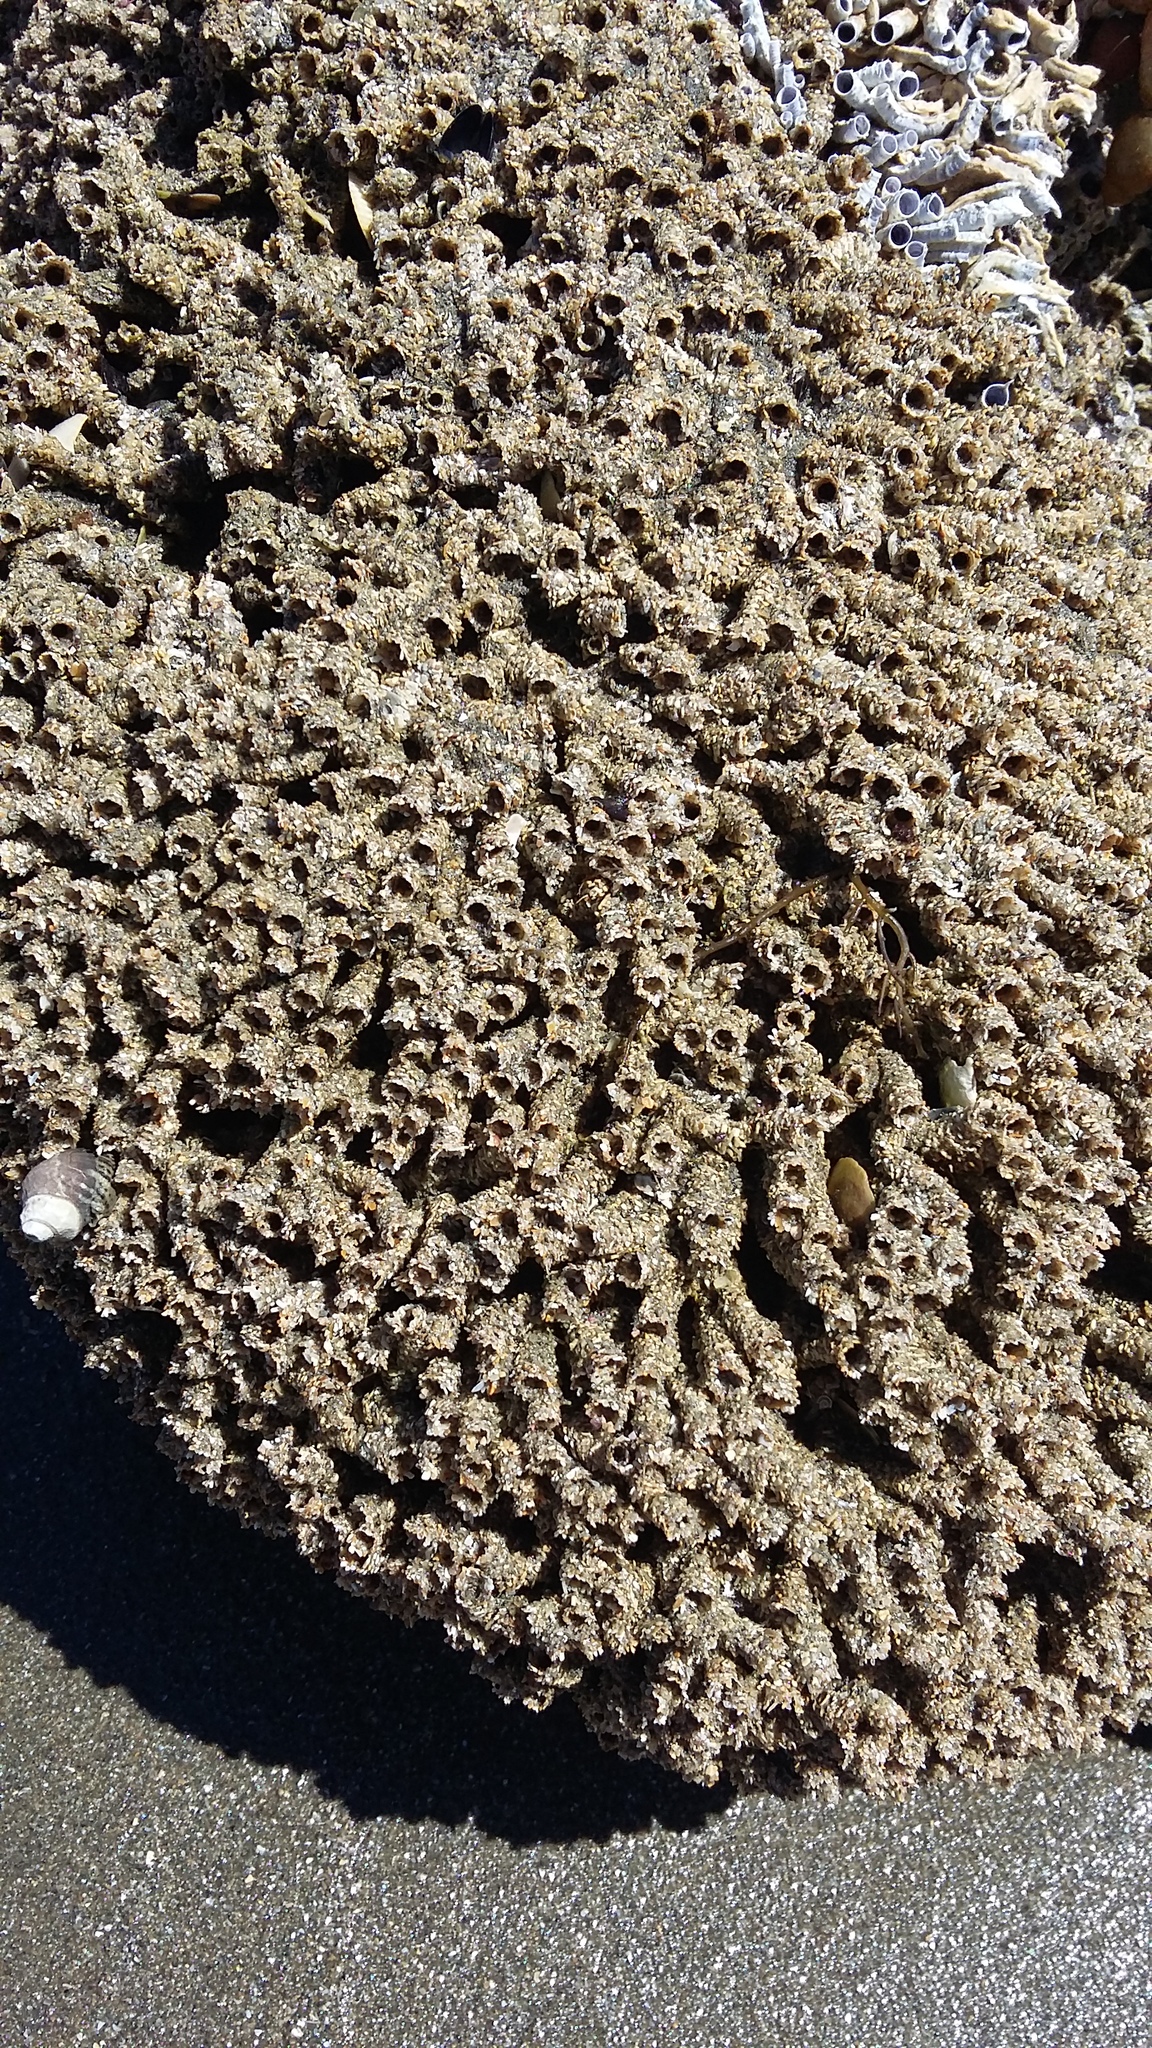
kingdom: Animalia
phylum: Annelida
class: Polychaeta
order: Sabellida
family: Sabellariidae
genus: Neosabellaria
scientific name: Neosabellaria kaiparaensis
